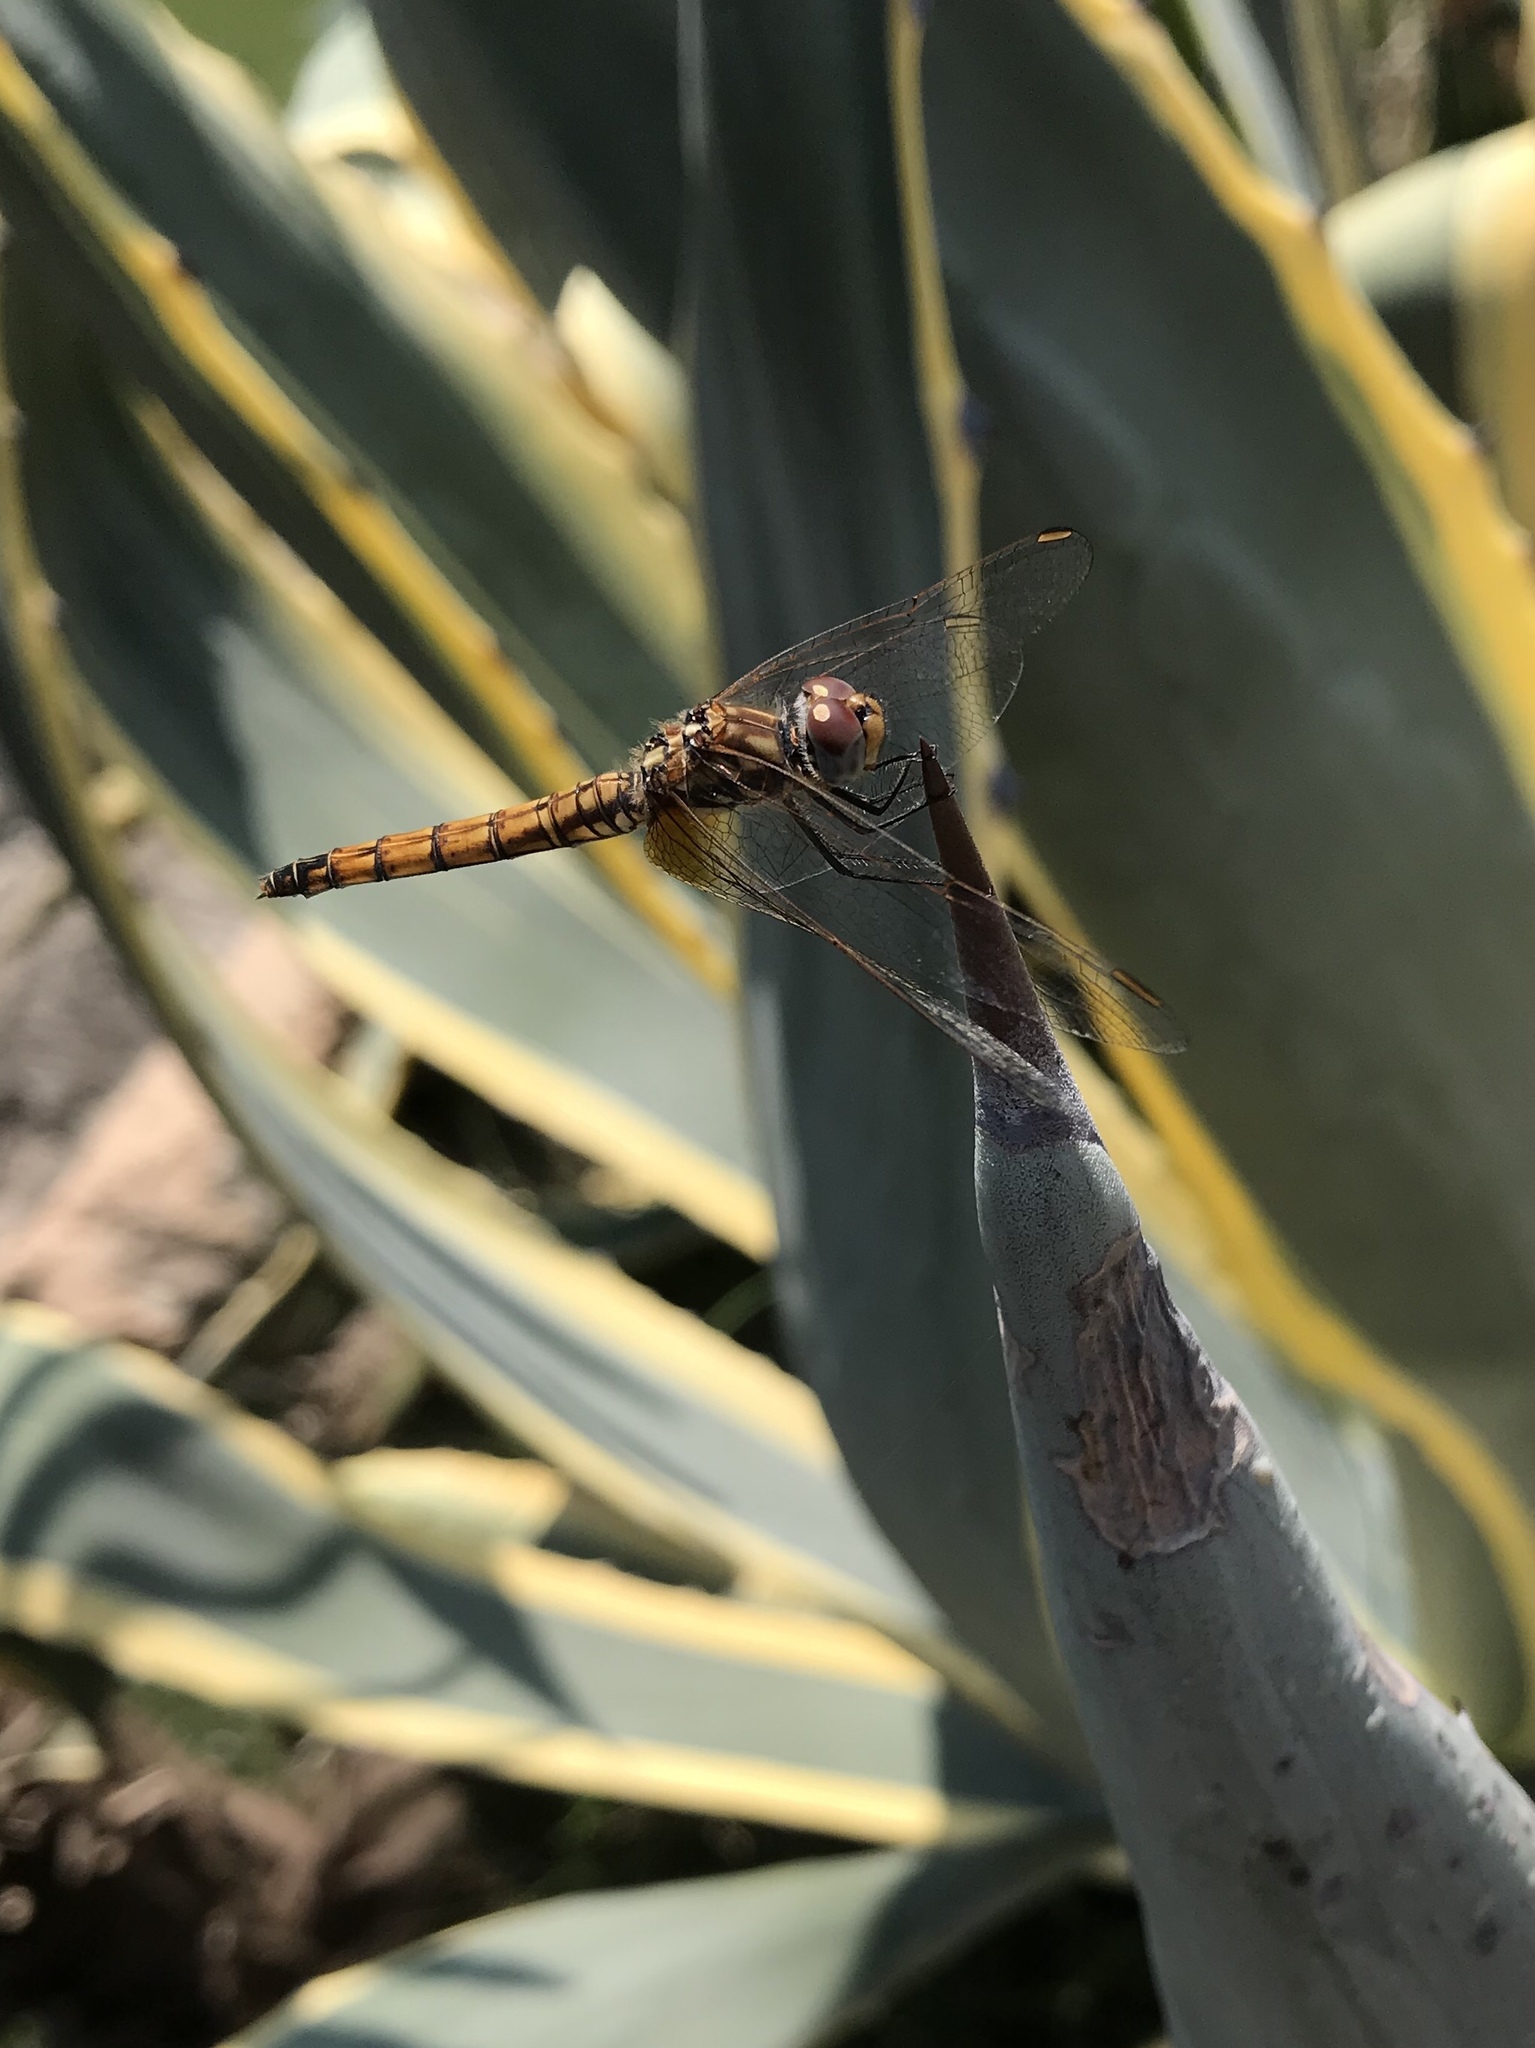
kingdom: Animalia
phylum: Arthropoda
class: Insecta
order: Odonata
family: Libellulidae
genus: Trithemis
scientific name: Trithemis annulata
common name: Violet dropwing
